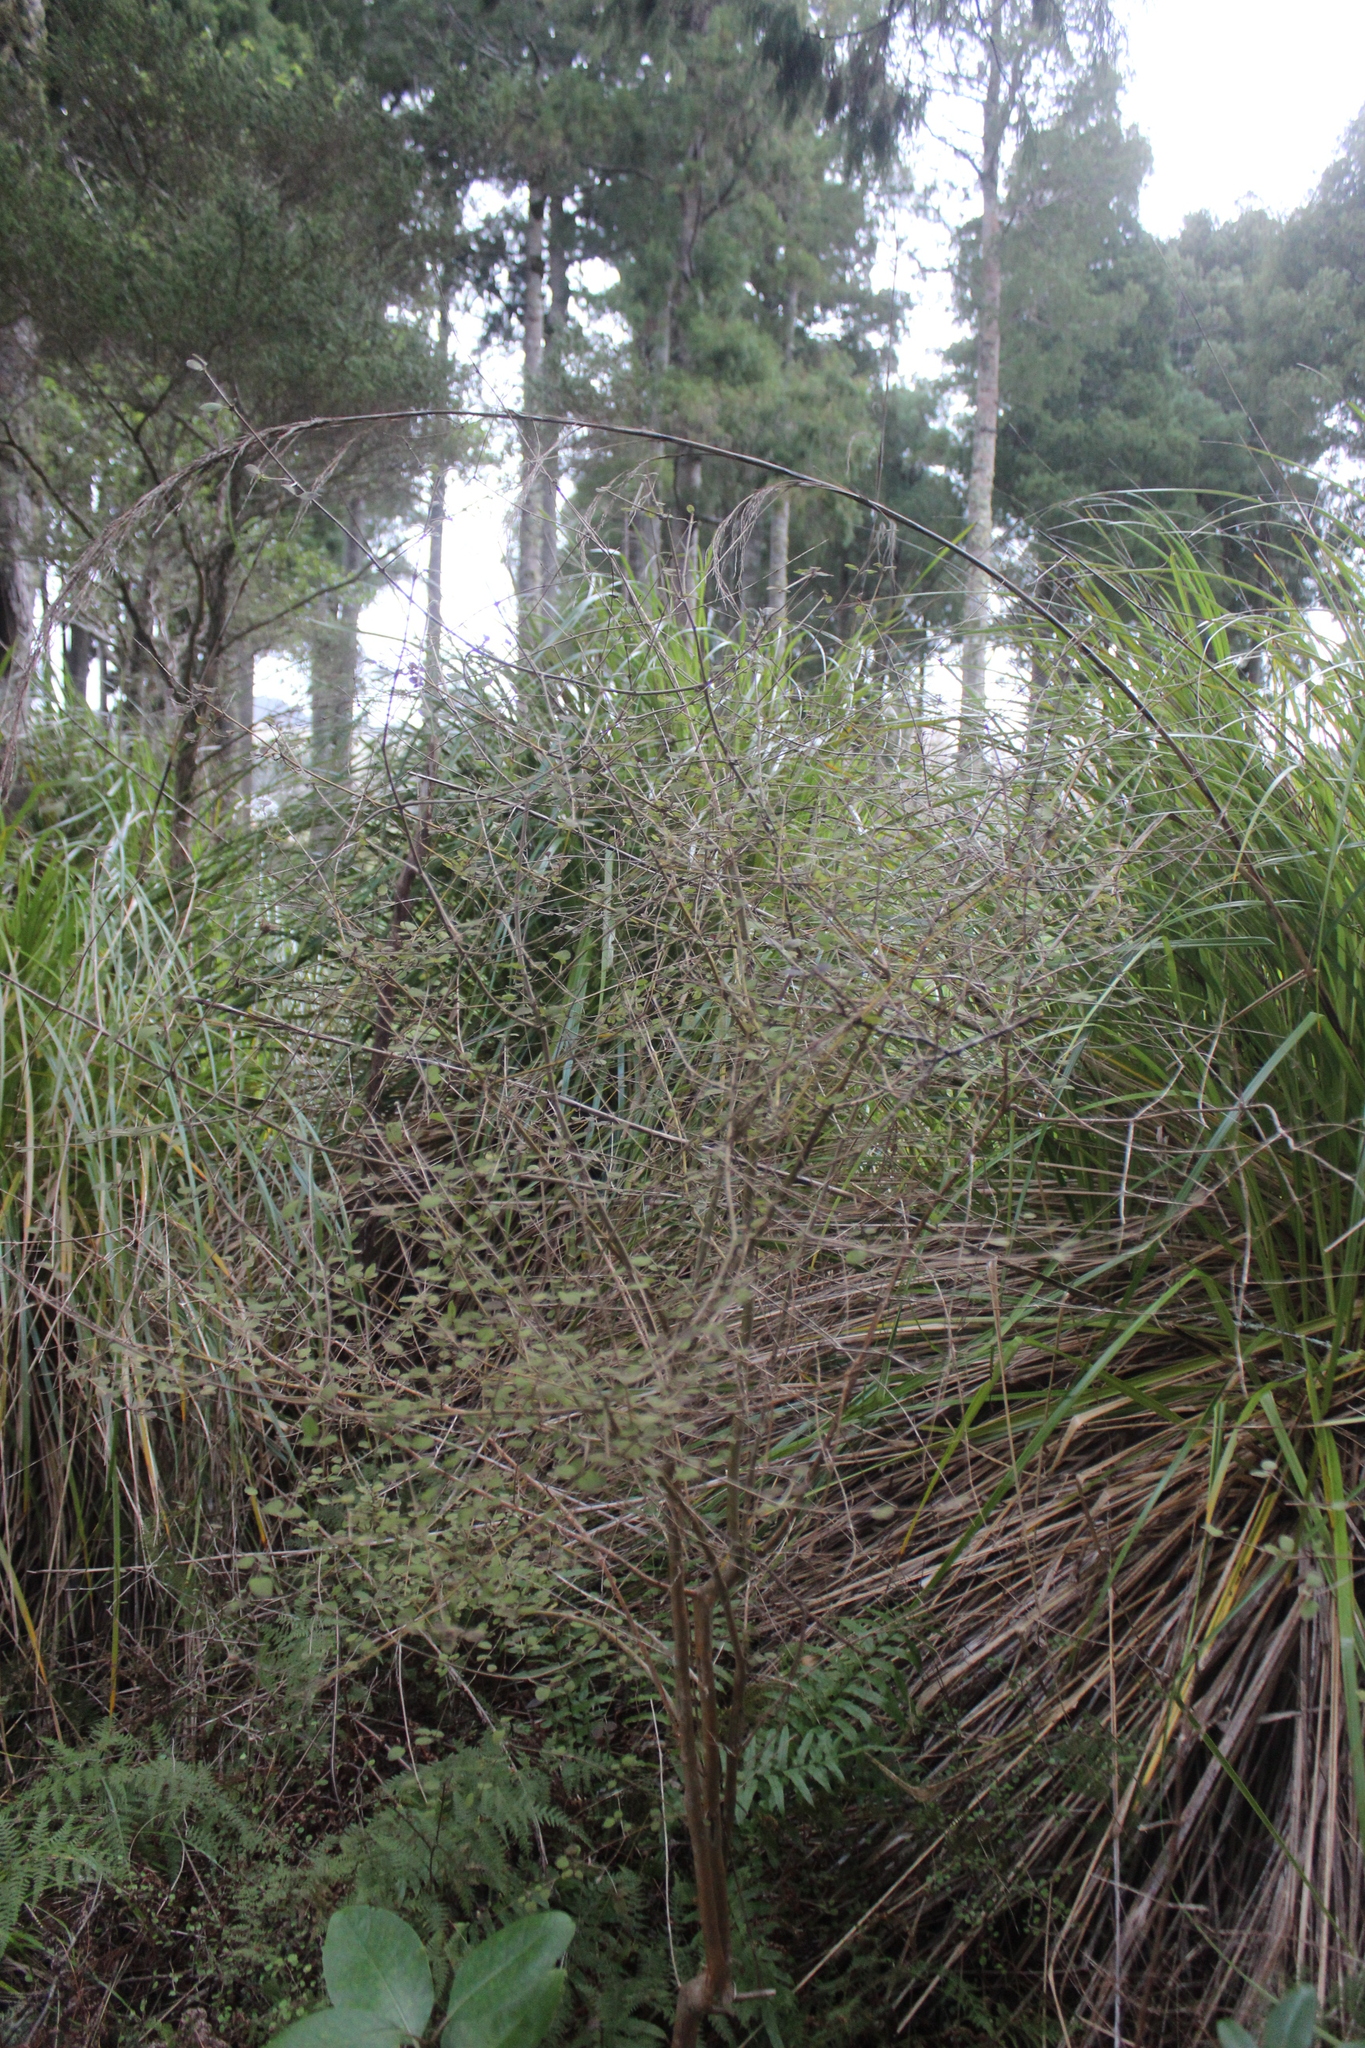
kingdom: Plantae
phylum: Tracheophyta
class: Magnoliopsida
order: Gentianales
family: Rubiaceae
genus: Coprosma
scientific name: Coprosma rotundifolia
